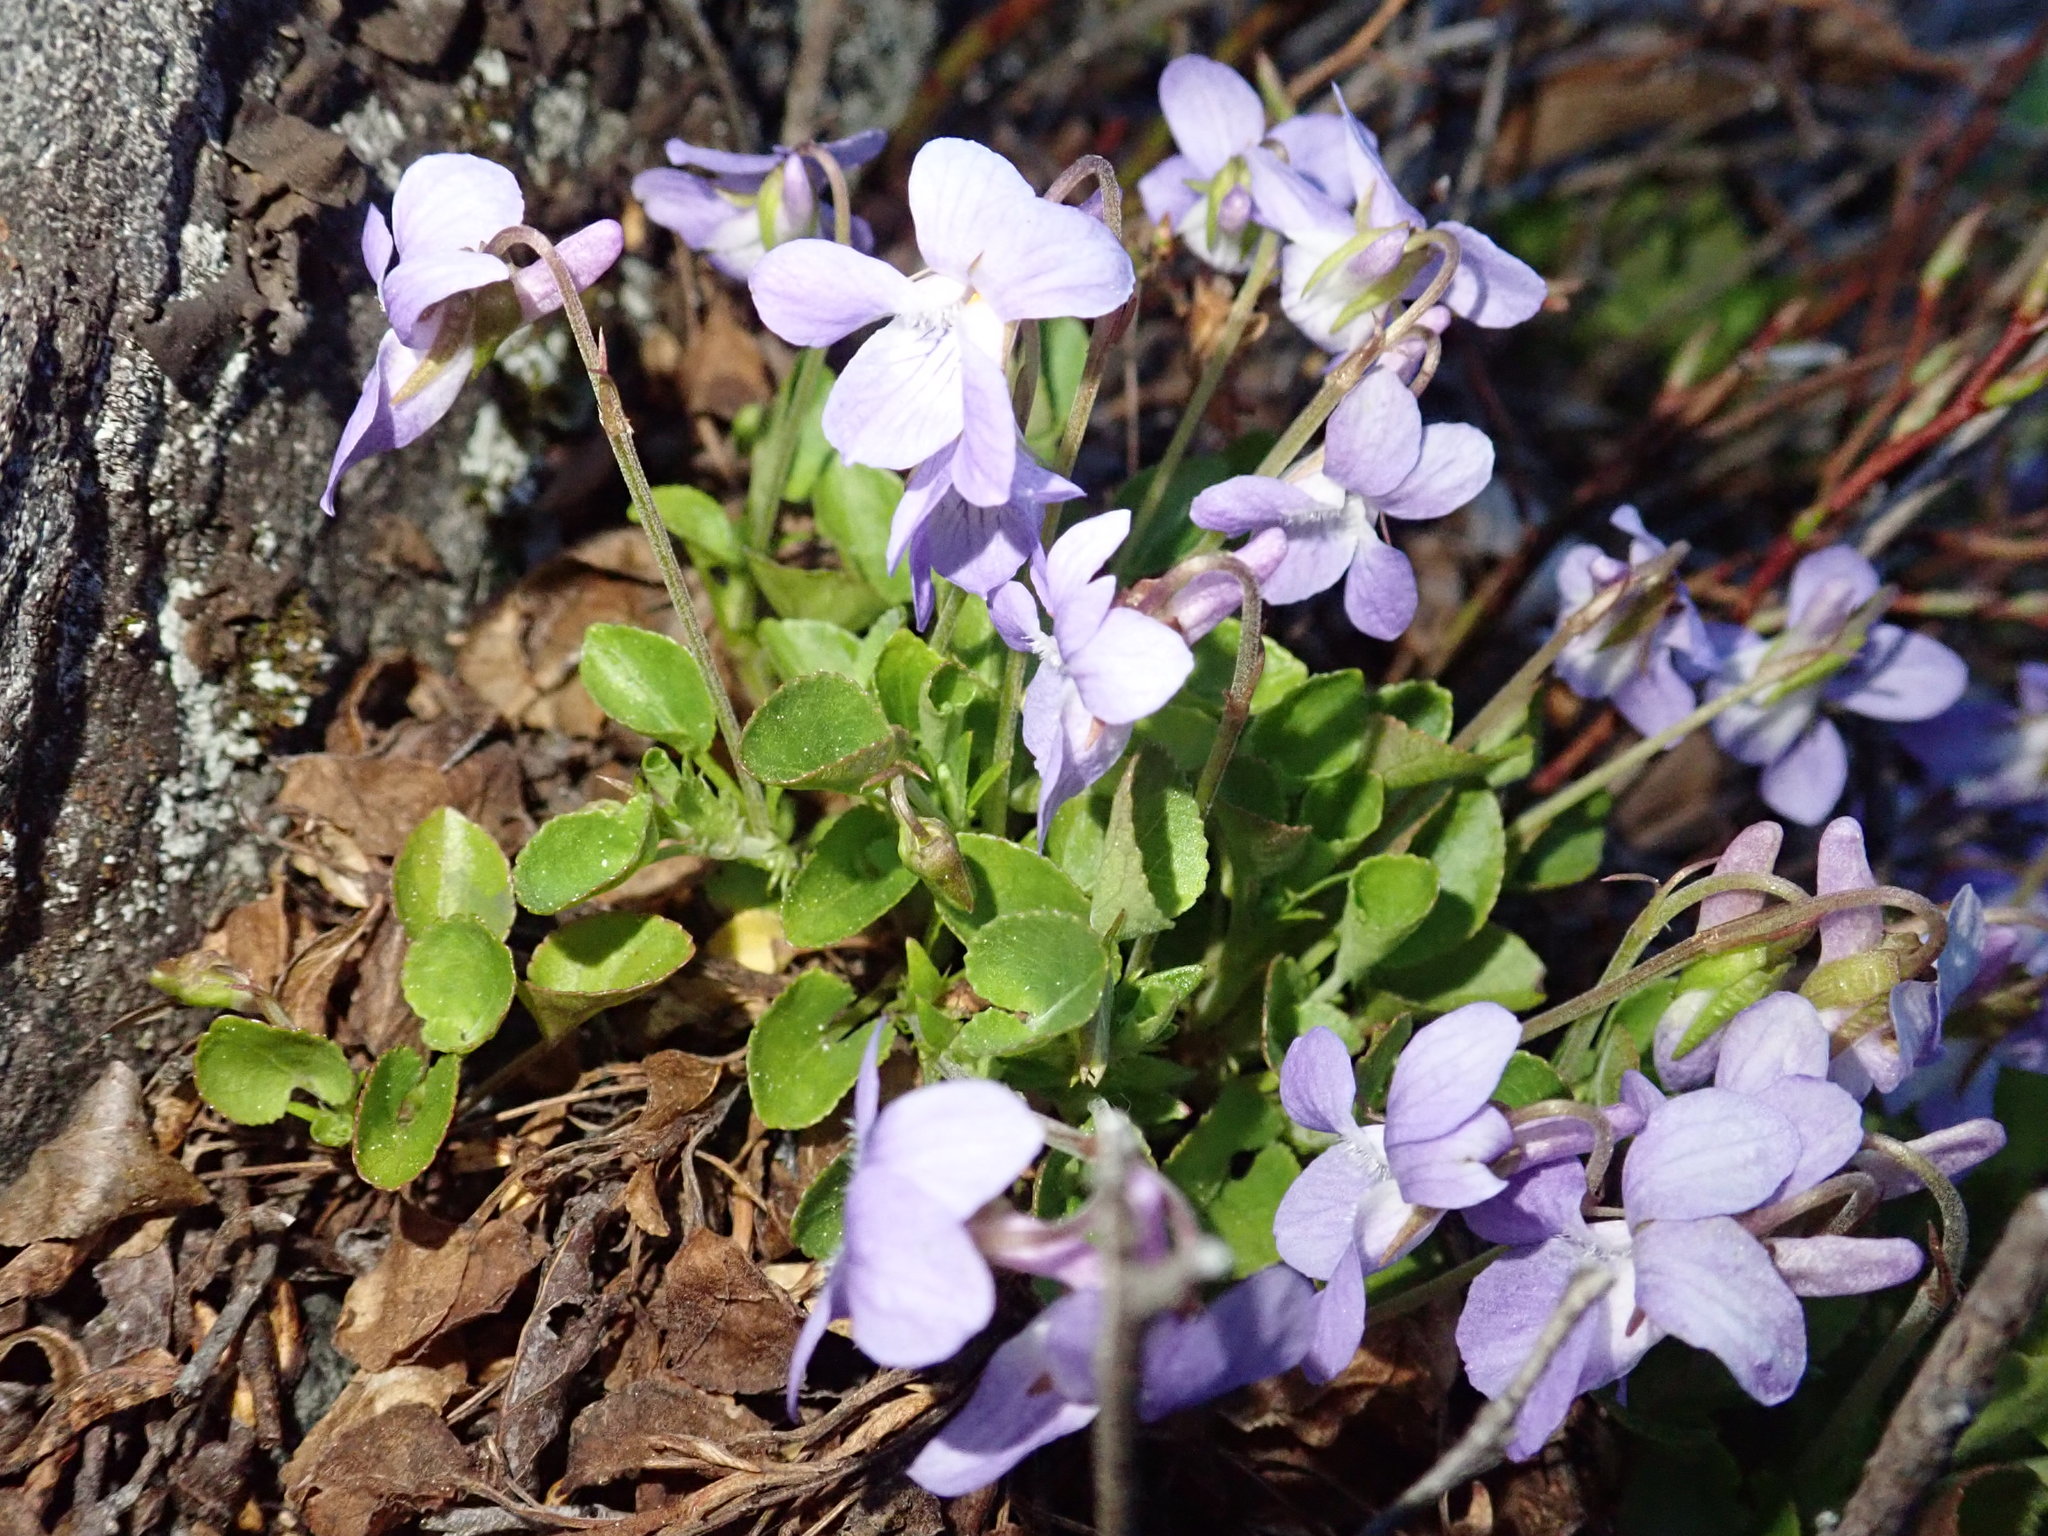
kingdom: Plantae
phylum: Tracheophyta
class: Magnoliopsida
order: Malpighiales
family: Violaceae
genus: Viola
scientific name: Viola adunca
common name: Sand violet
